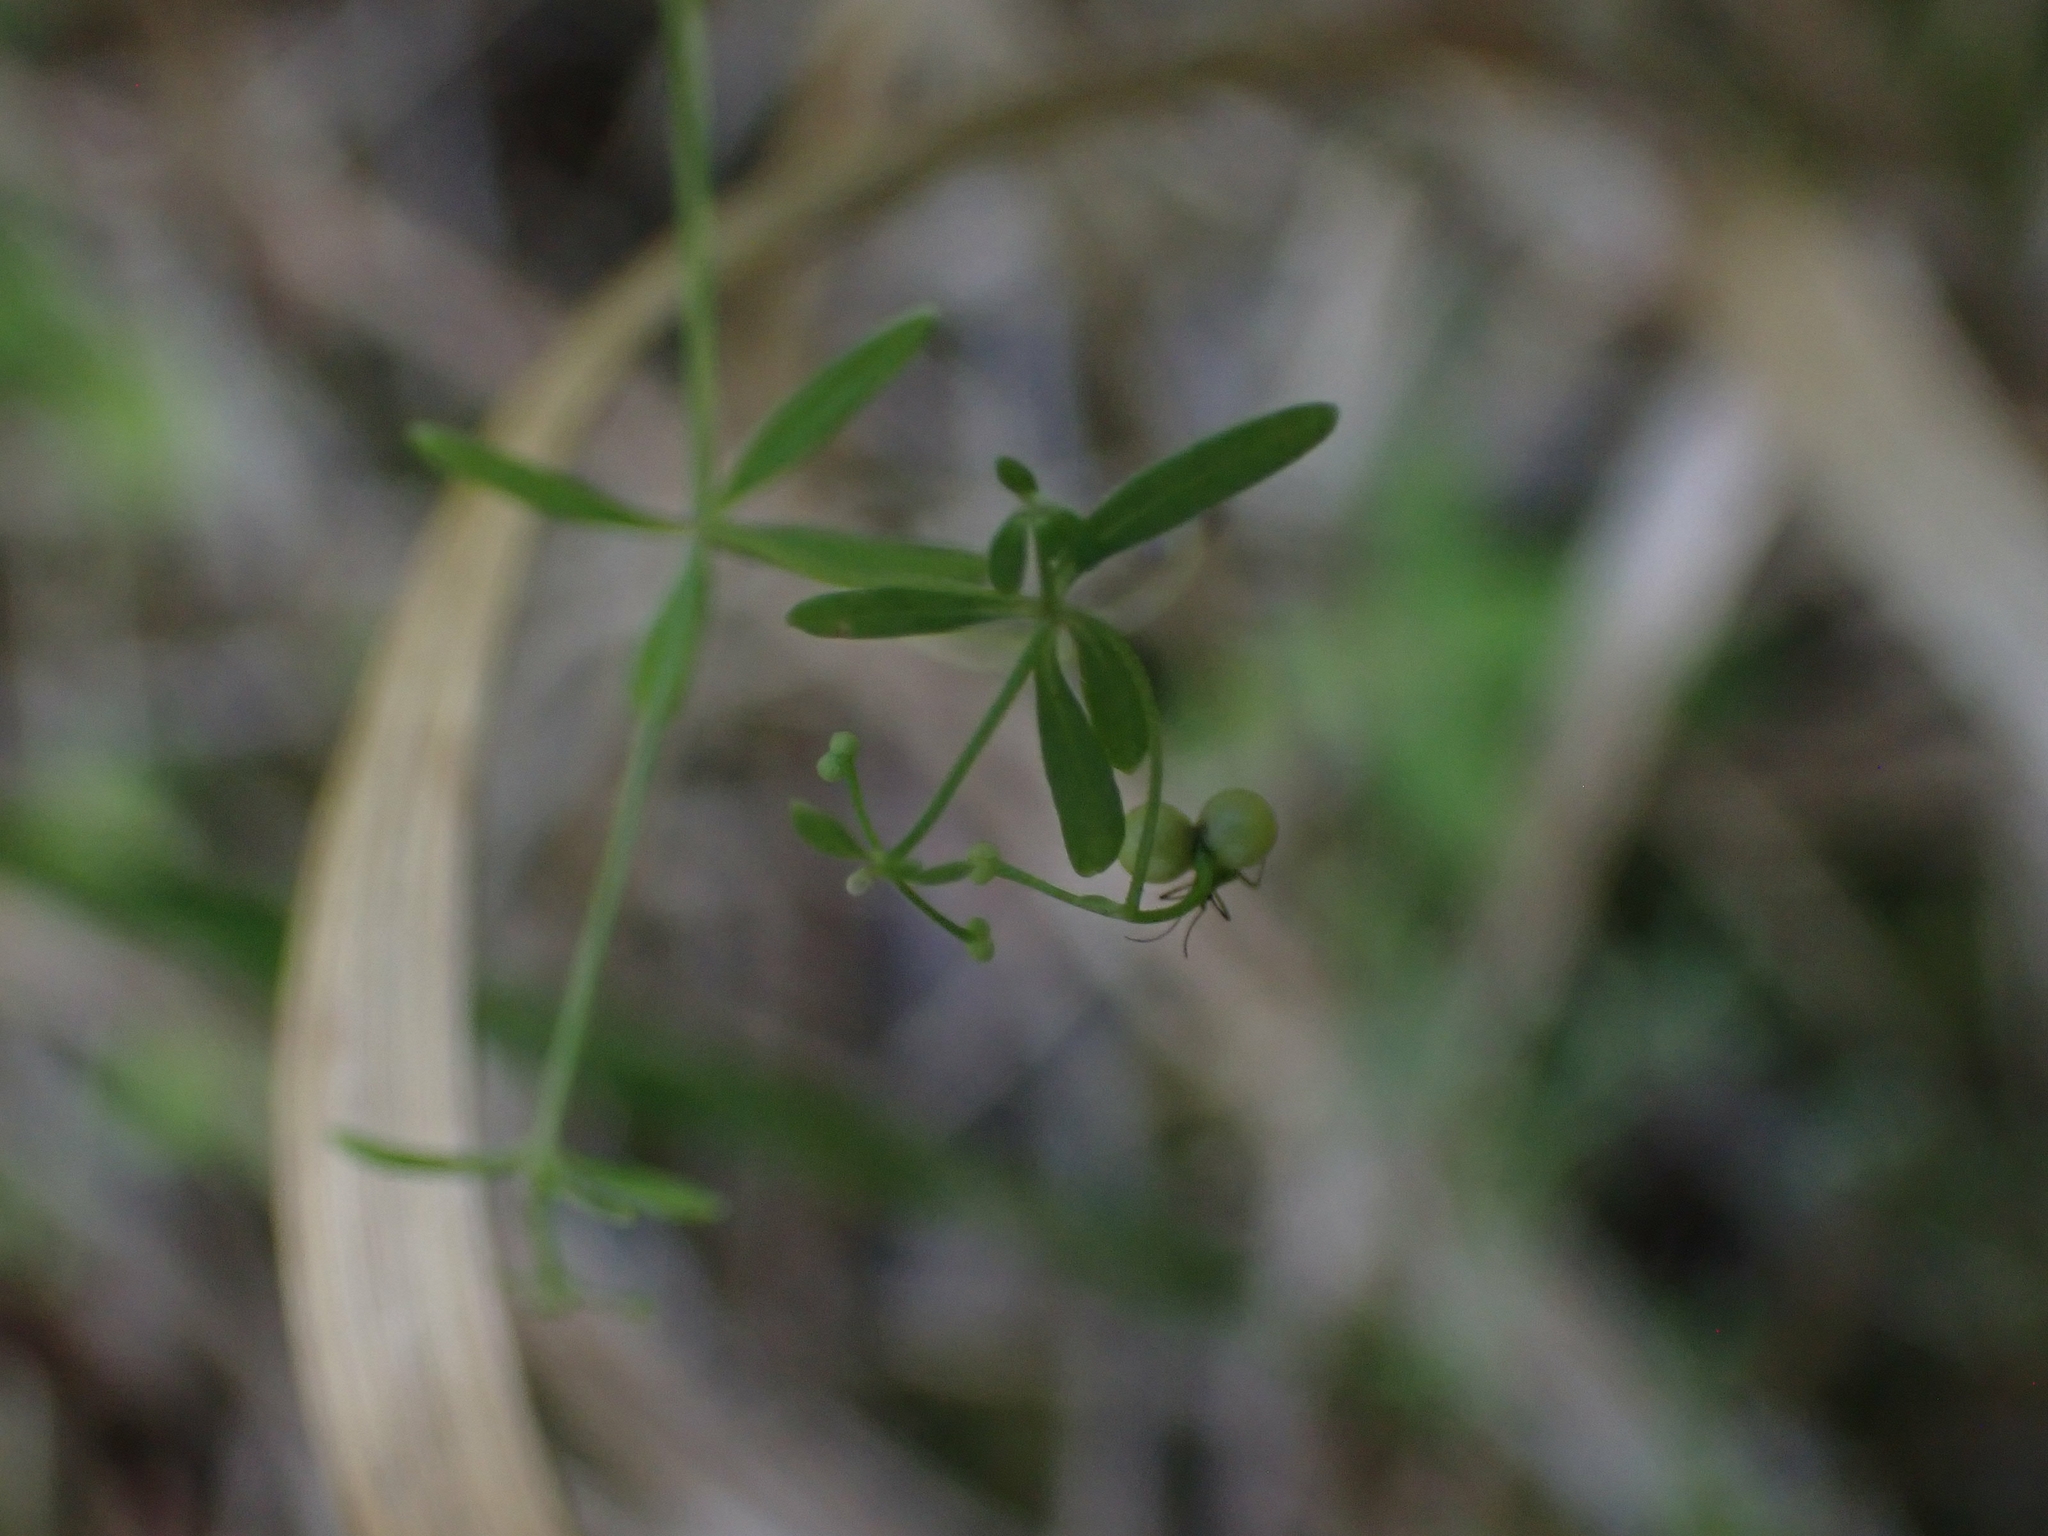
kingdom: Plantae
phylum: Tracheophyta
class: Magnoliopsida
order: Gentianales
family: Rubiaceae
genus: Galium
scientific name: Galium trifidum
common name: Small bedstraw
